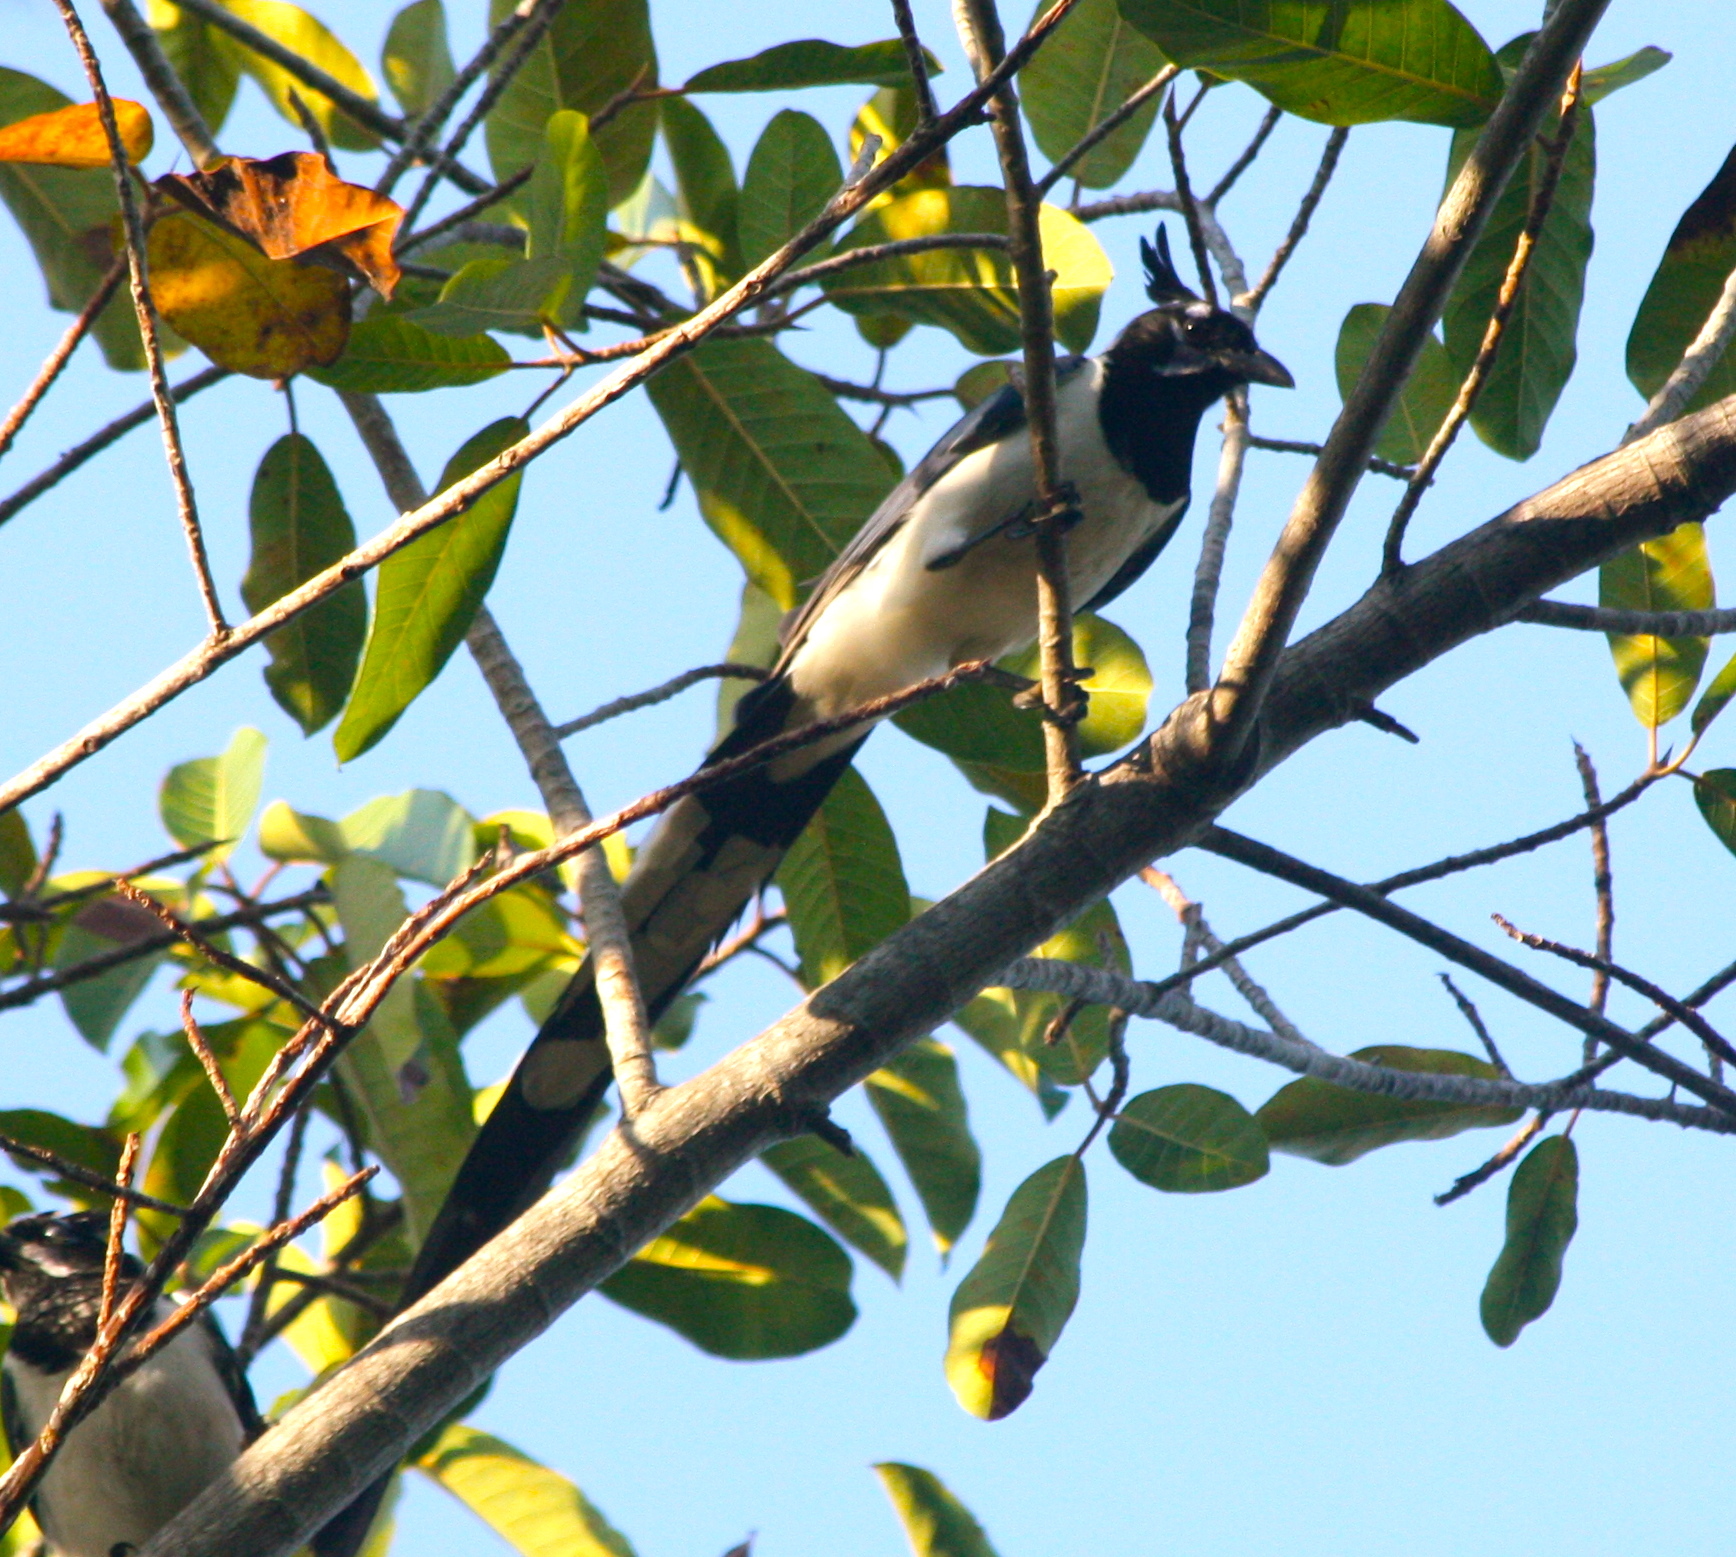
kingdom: Animalia
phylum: Chordata
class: Aves
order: Passeriformes
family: Corvidae
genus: Calocitta
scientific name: Calocitta colliei
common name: Black-throated magpie-jay
